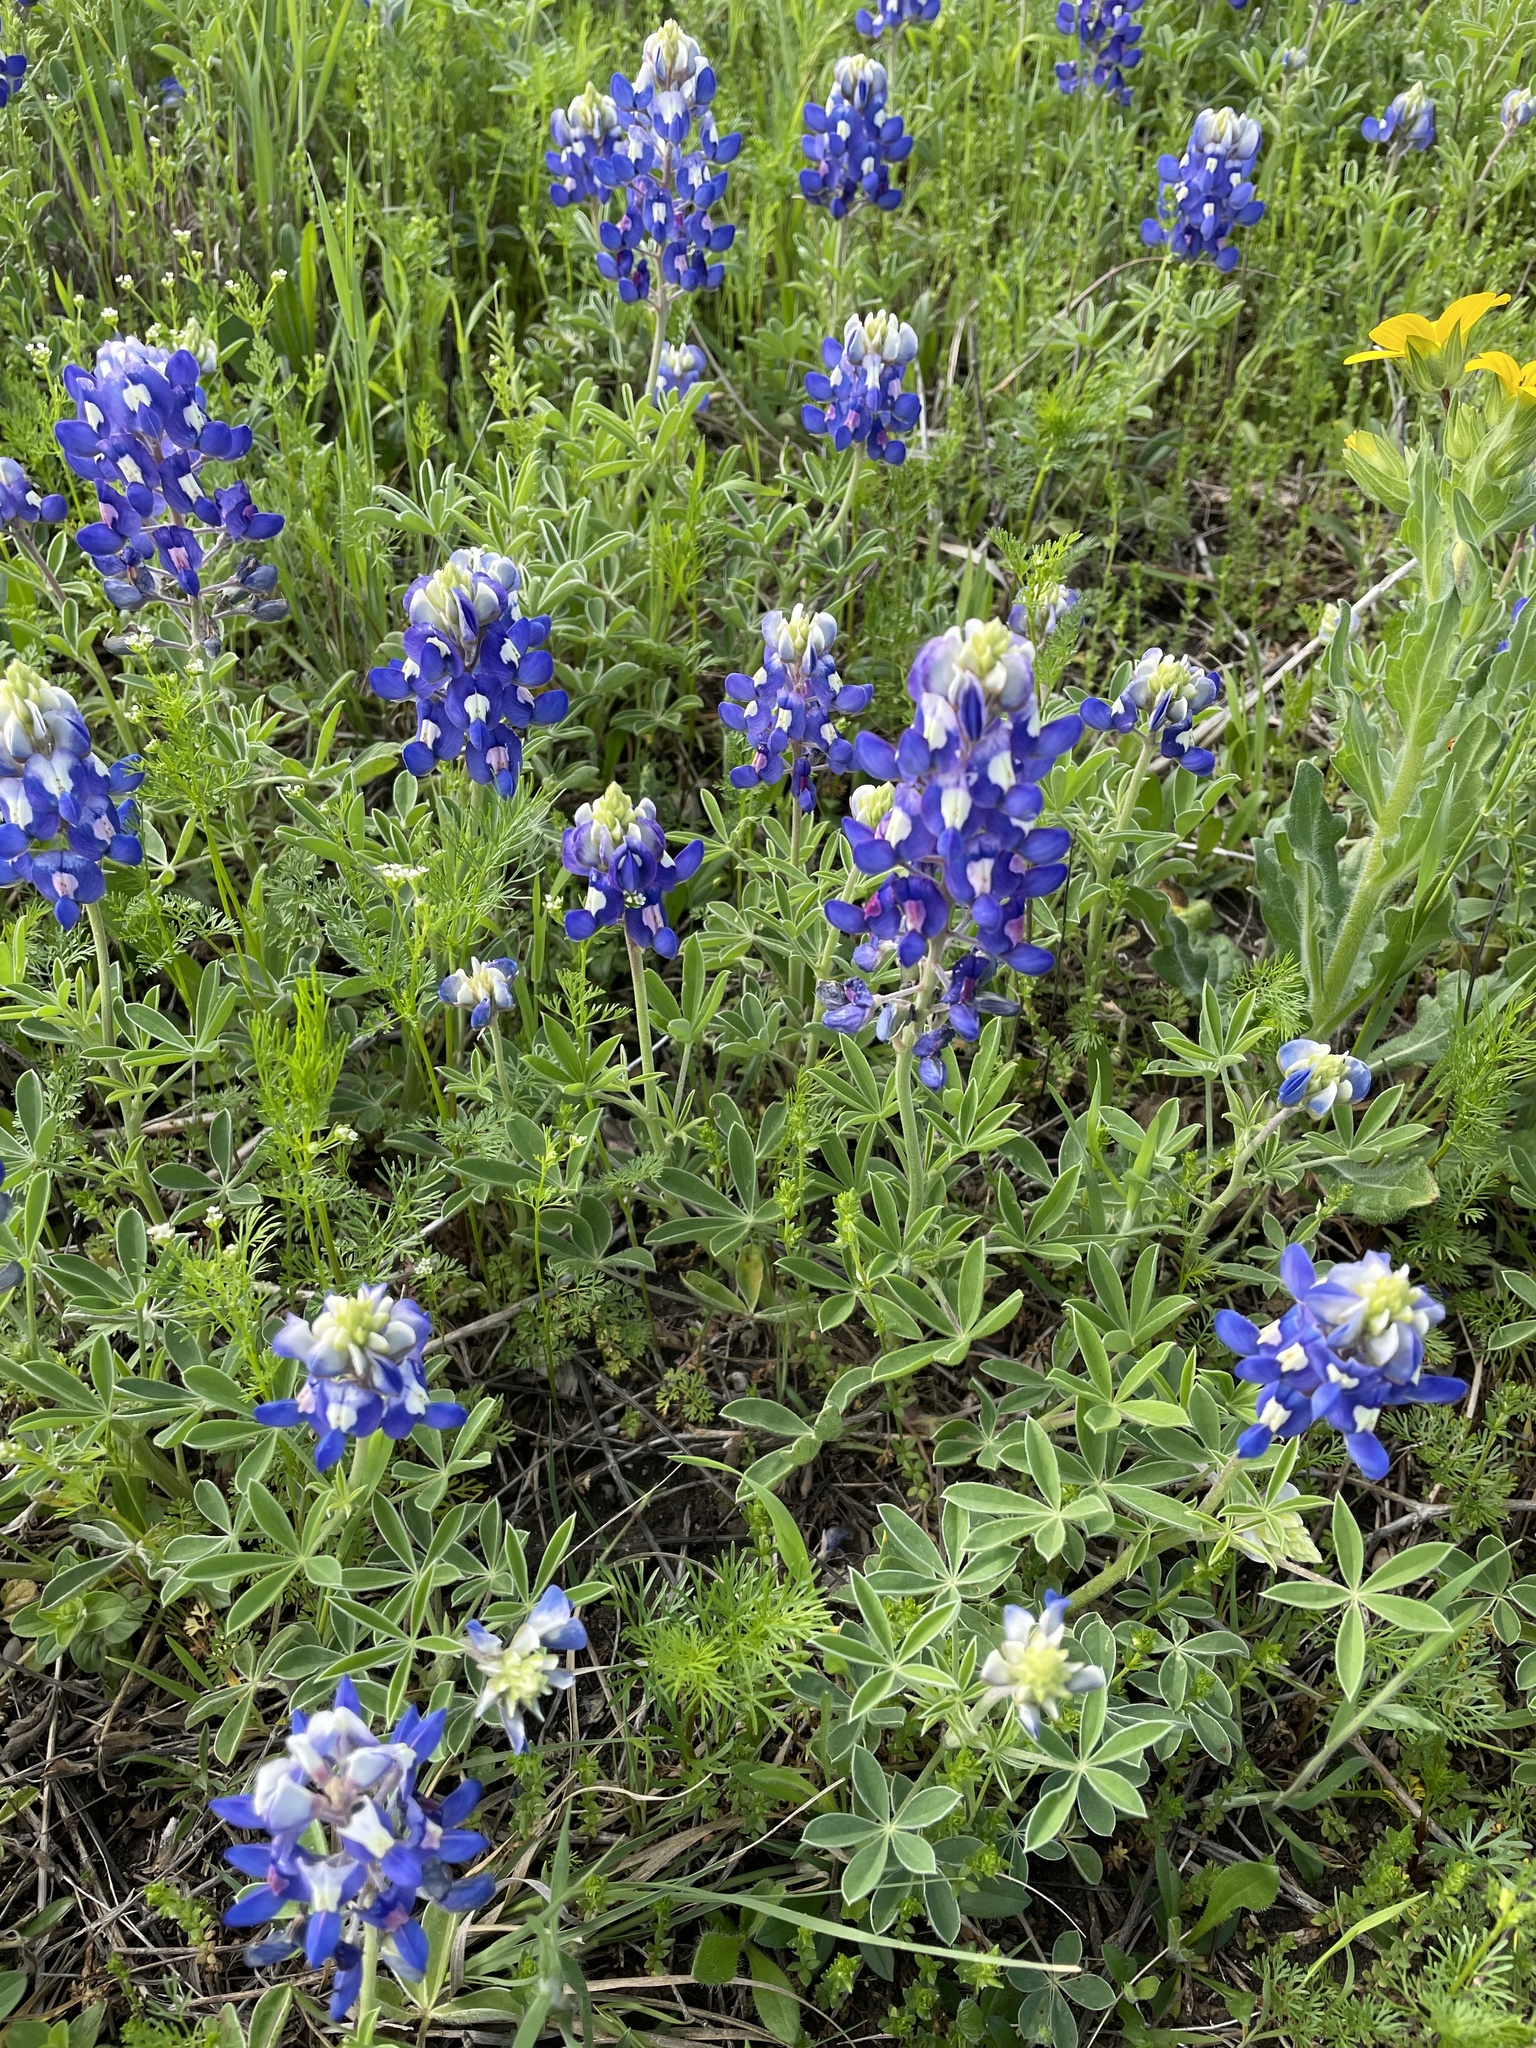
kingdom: Plantae
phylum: Tracheophyta
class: Magnoliopsida
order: Fabales
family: Fabaceae
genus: Lupinus
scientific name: Lupinus texensis
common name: Texas bluebonnet
